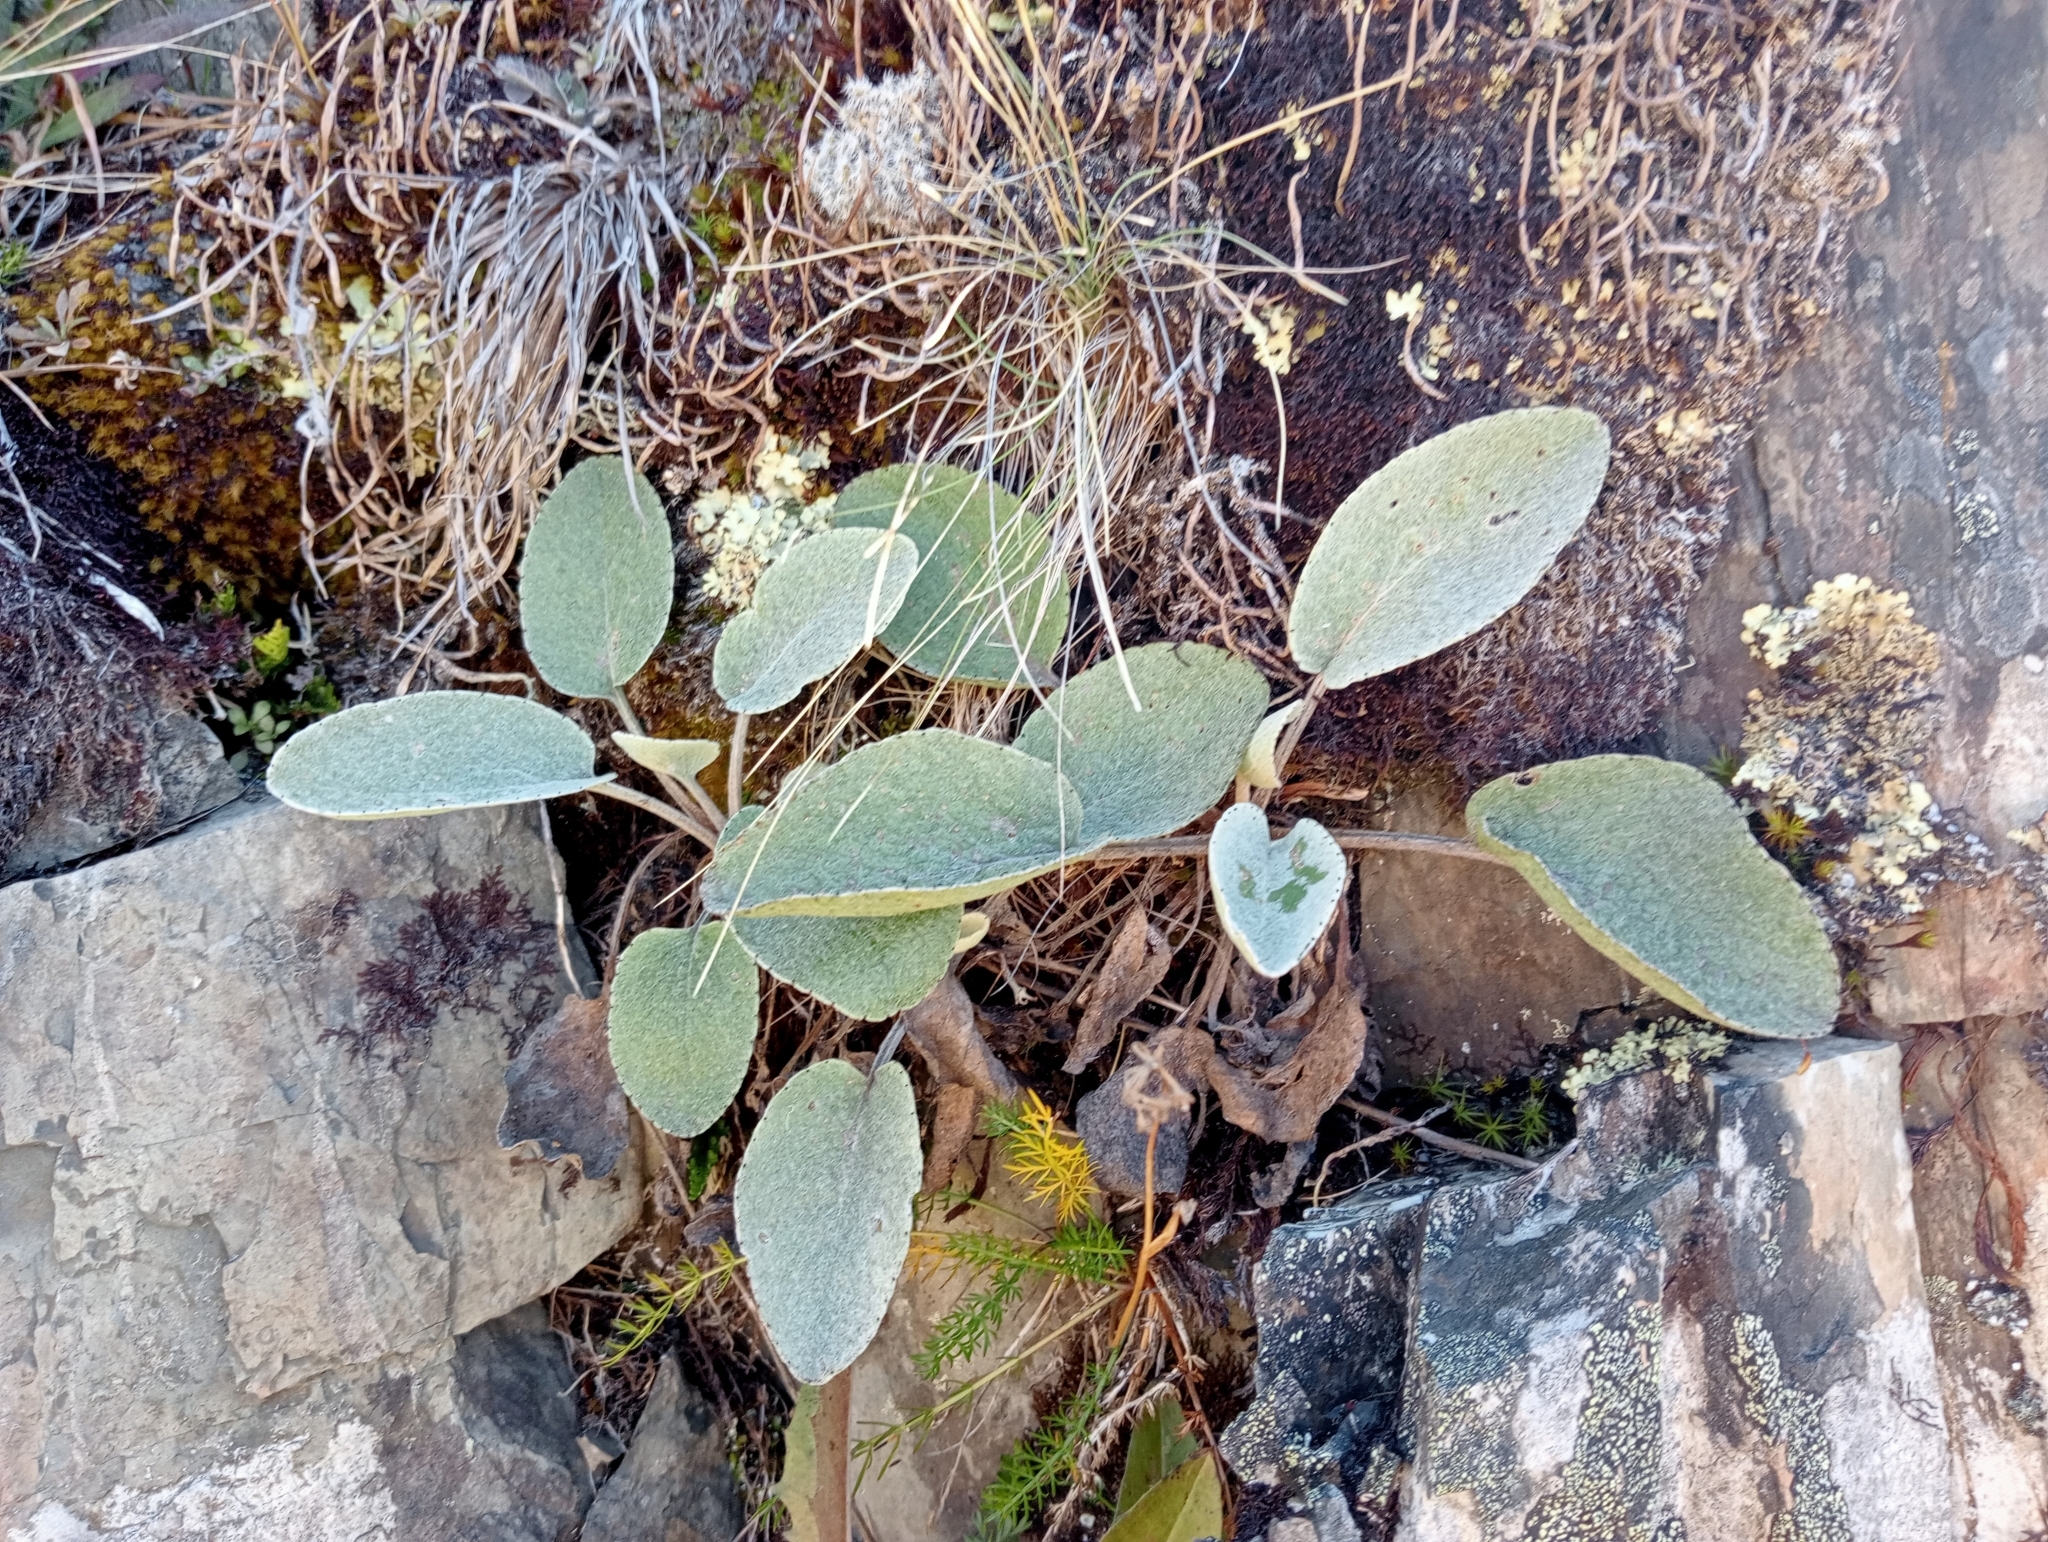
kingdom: Plantae
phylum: Tracheophyta
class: Magnoliopsida
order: Asterales
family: Asteraceae
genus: Brachyglottis
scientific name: Brachyglottis haastii
